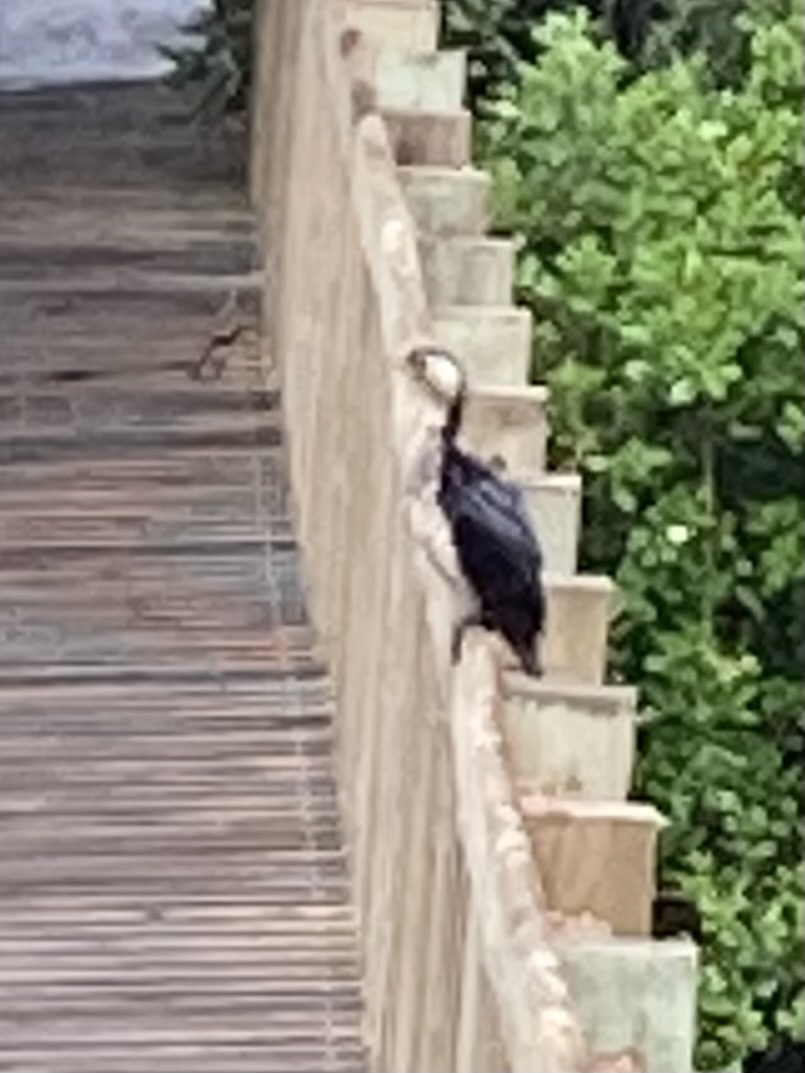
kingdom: Animalia
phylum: Chordata
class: Aves
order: Suliformes
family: Phalacrocoracidae
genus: Microcarbo
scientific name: Microcarbo melanoleucos
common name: Little pied cormorant
